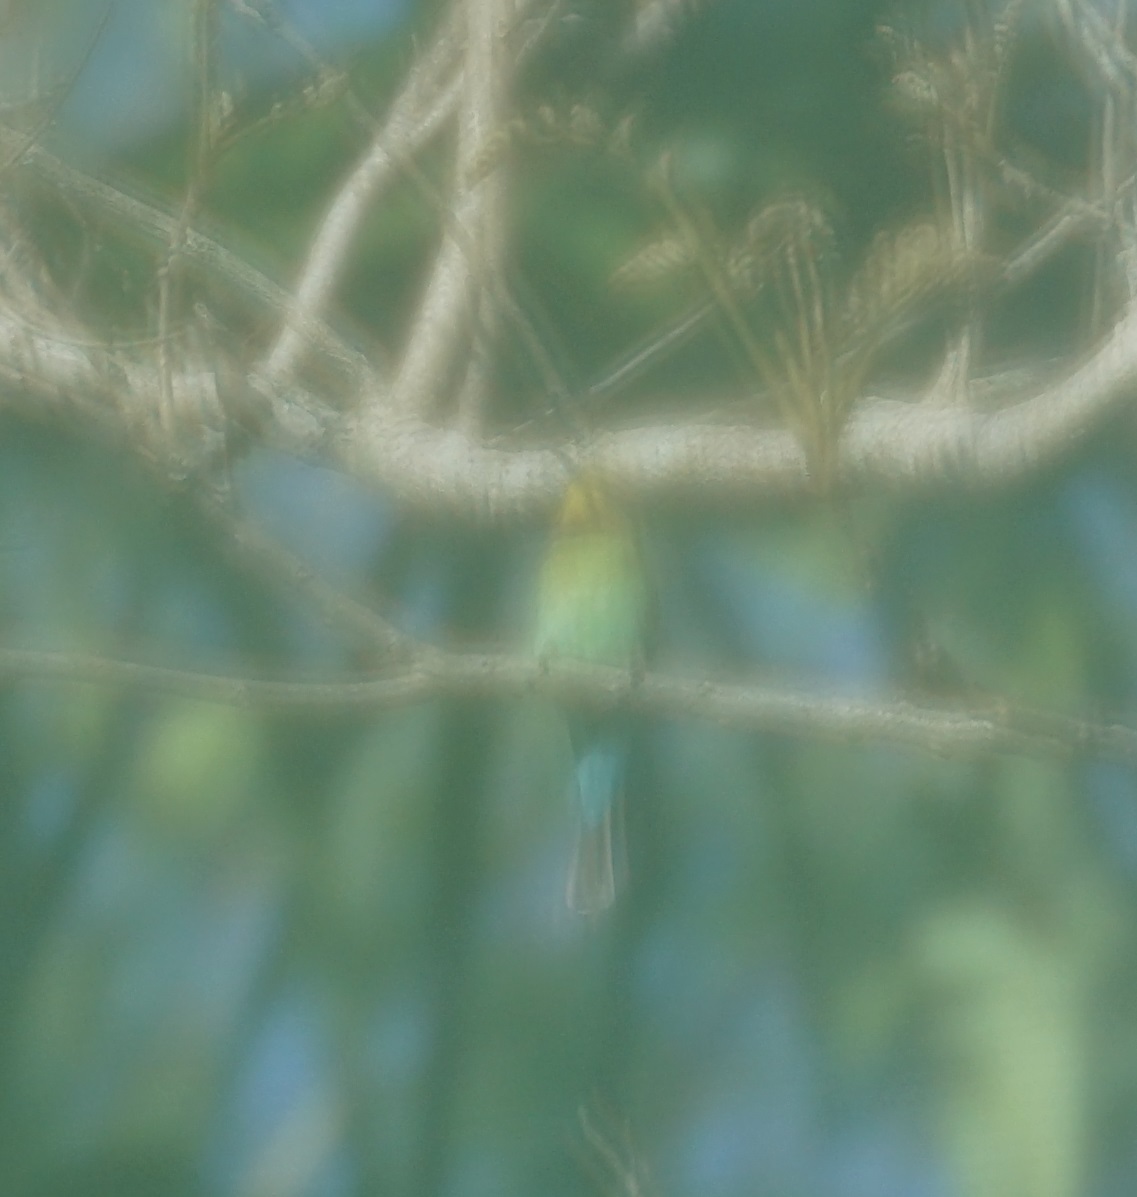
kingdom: Animalia
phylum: Chordata
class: Aves
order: Coraciiformes
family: Meropidae
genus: Merops
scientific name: Merops ornatus
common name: Rainbow bee-eater
